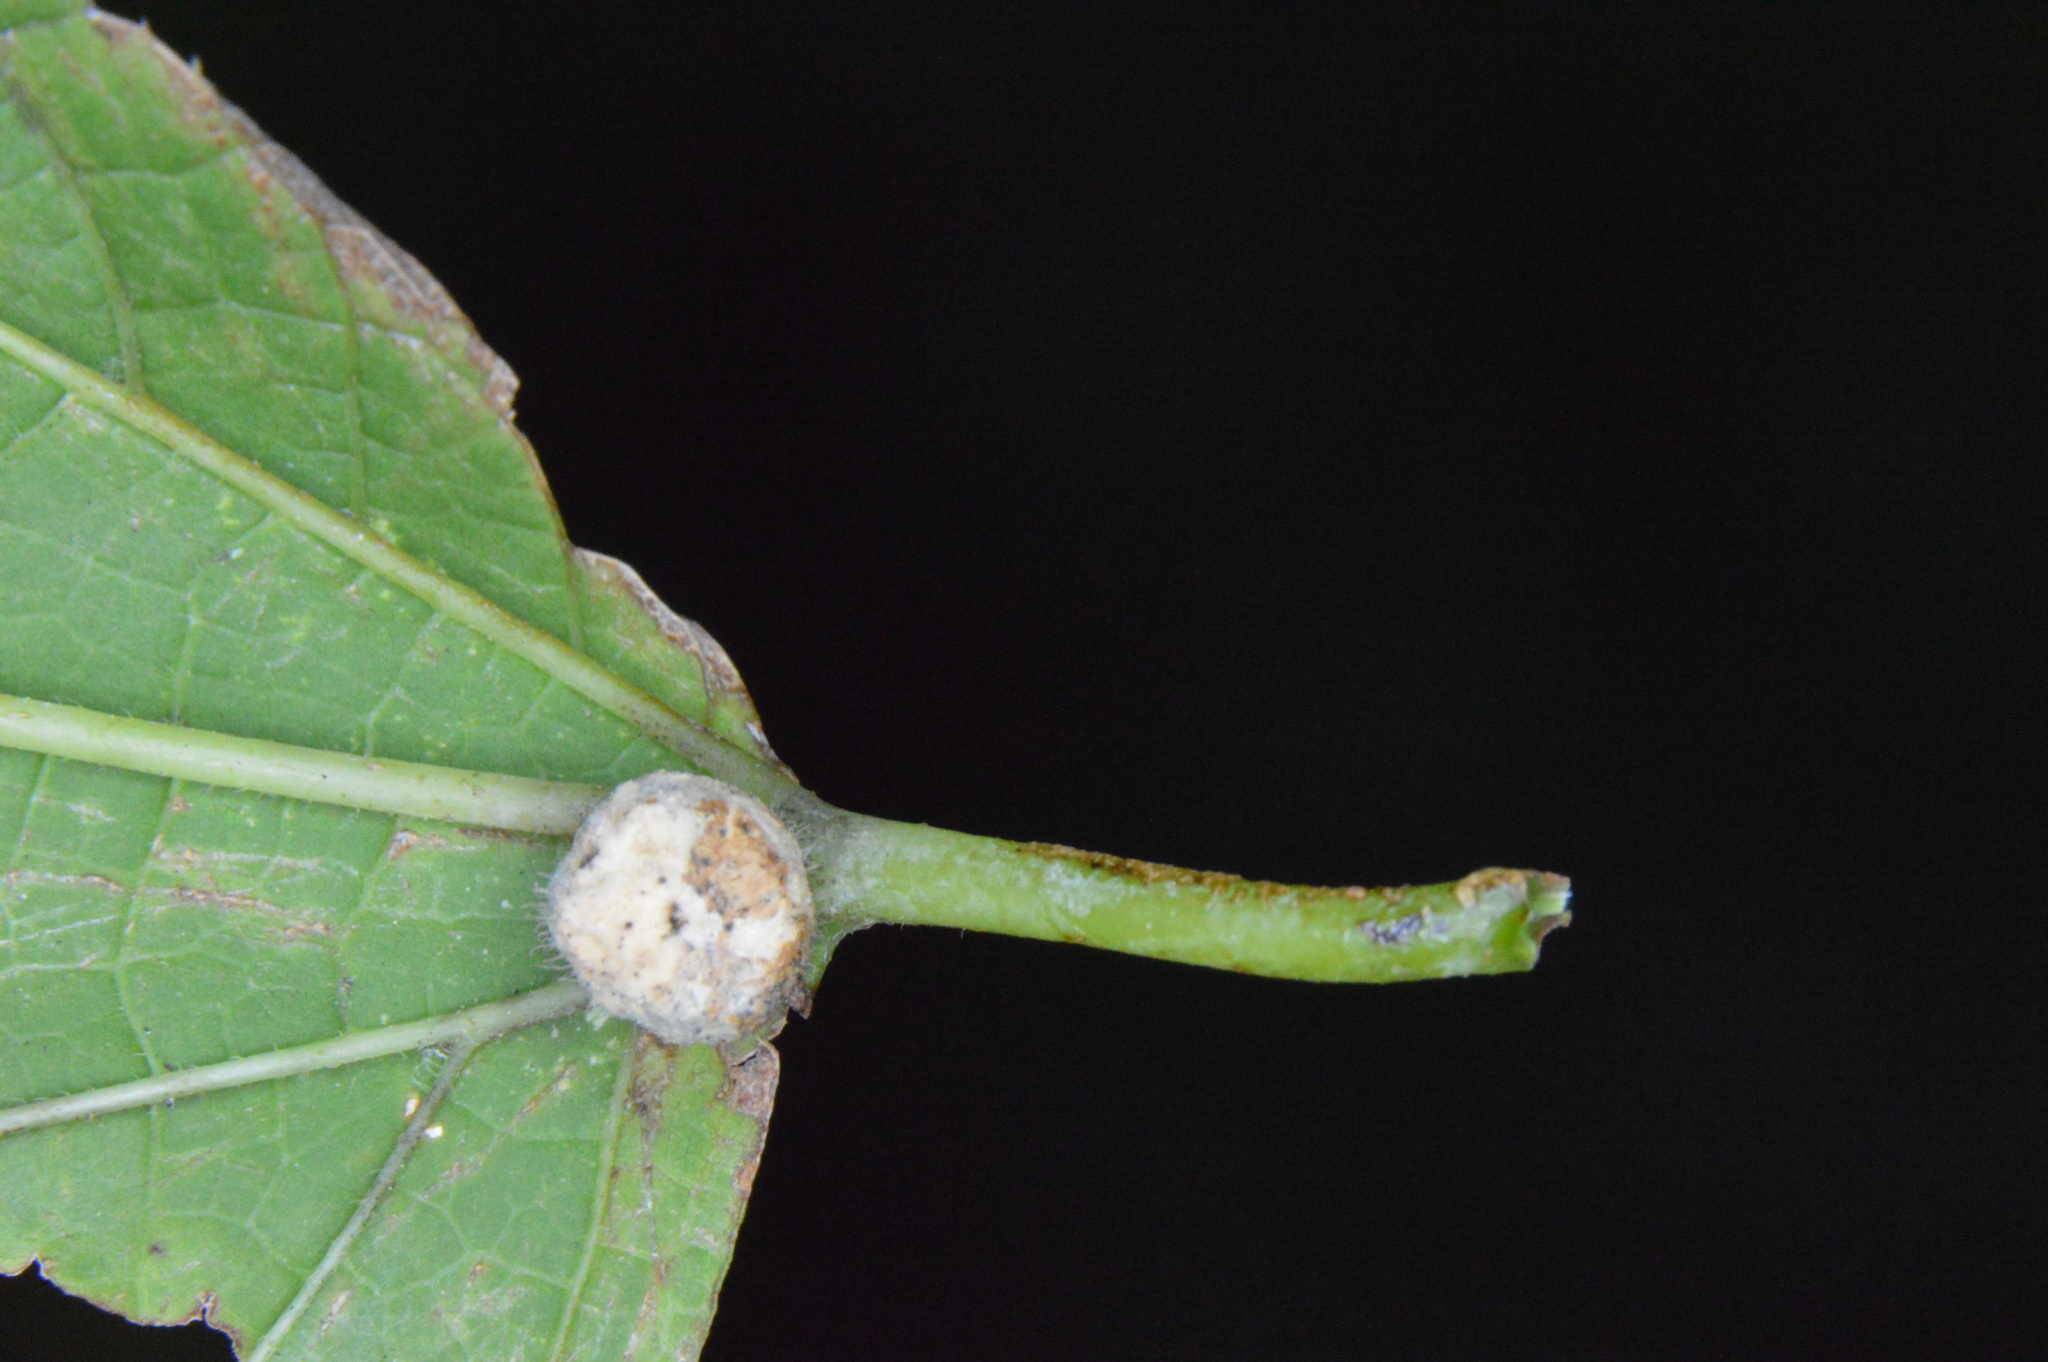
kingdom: Animalia
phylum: Arthropoda
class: Insecta
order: Diptera
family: Cecidomyiidae
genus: Celticecis
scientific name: Celticecis pubescens
